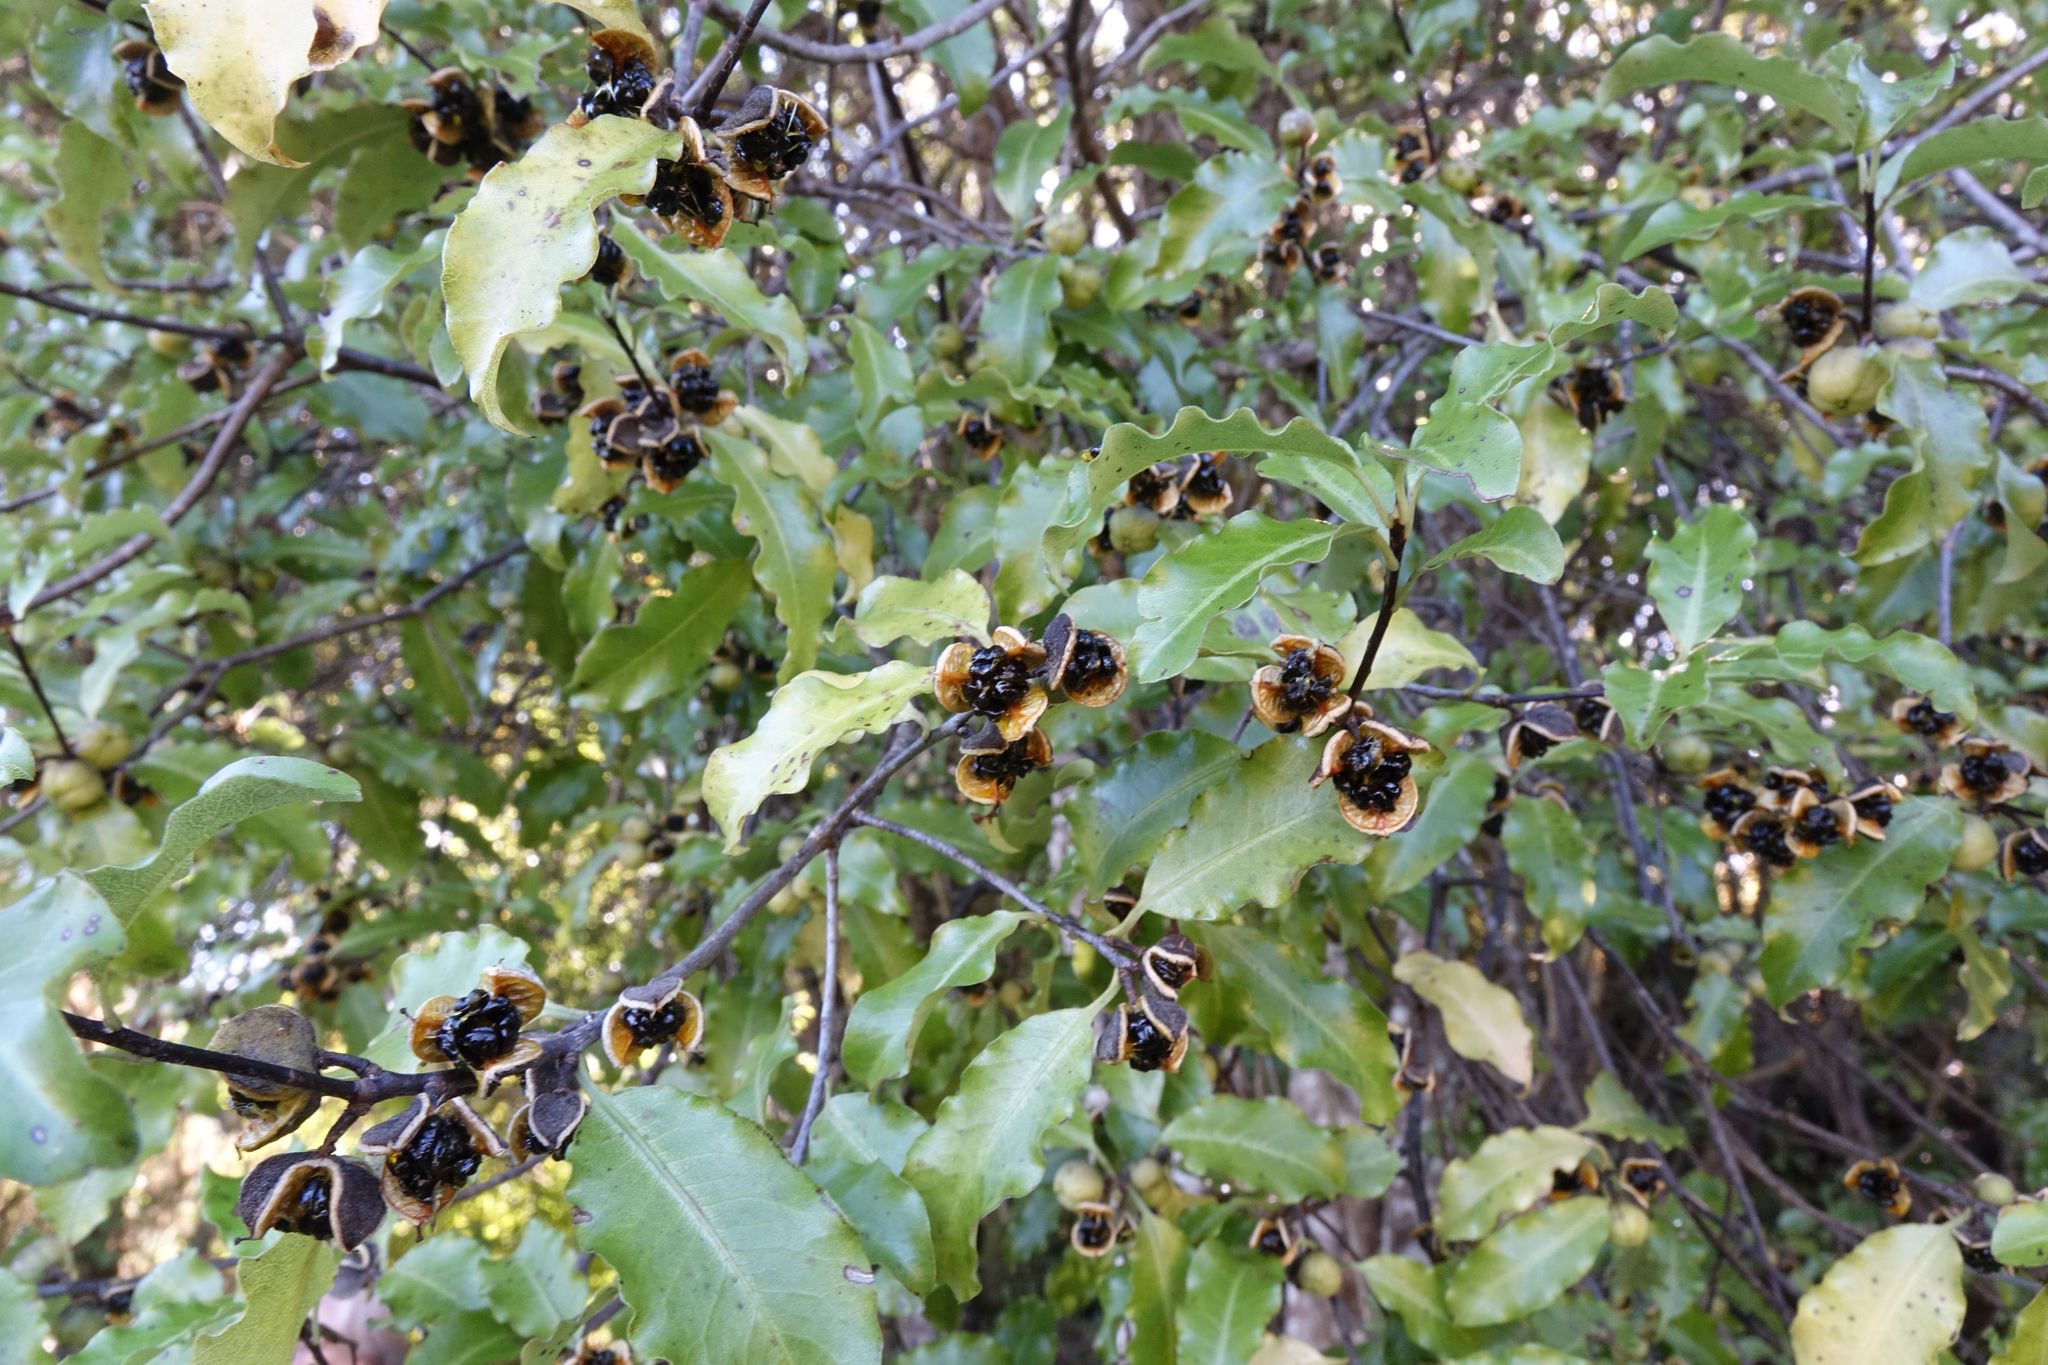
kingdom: Plantae
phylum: Tracheophyta
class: Magnoliopsida
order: Apiales
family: Pittosporaceae
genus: Pittosporum
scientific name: Pittosporum tenuifolium
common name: Kohuhu
